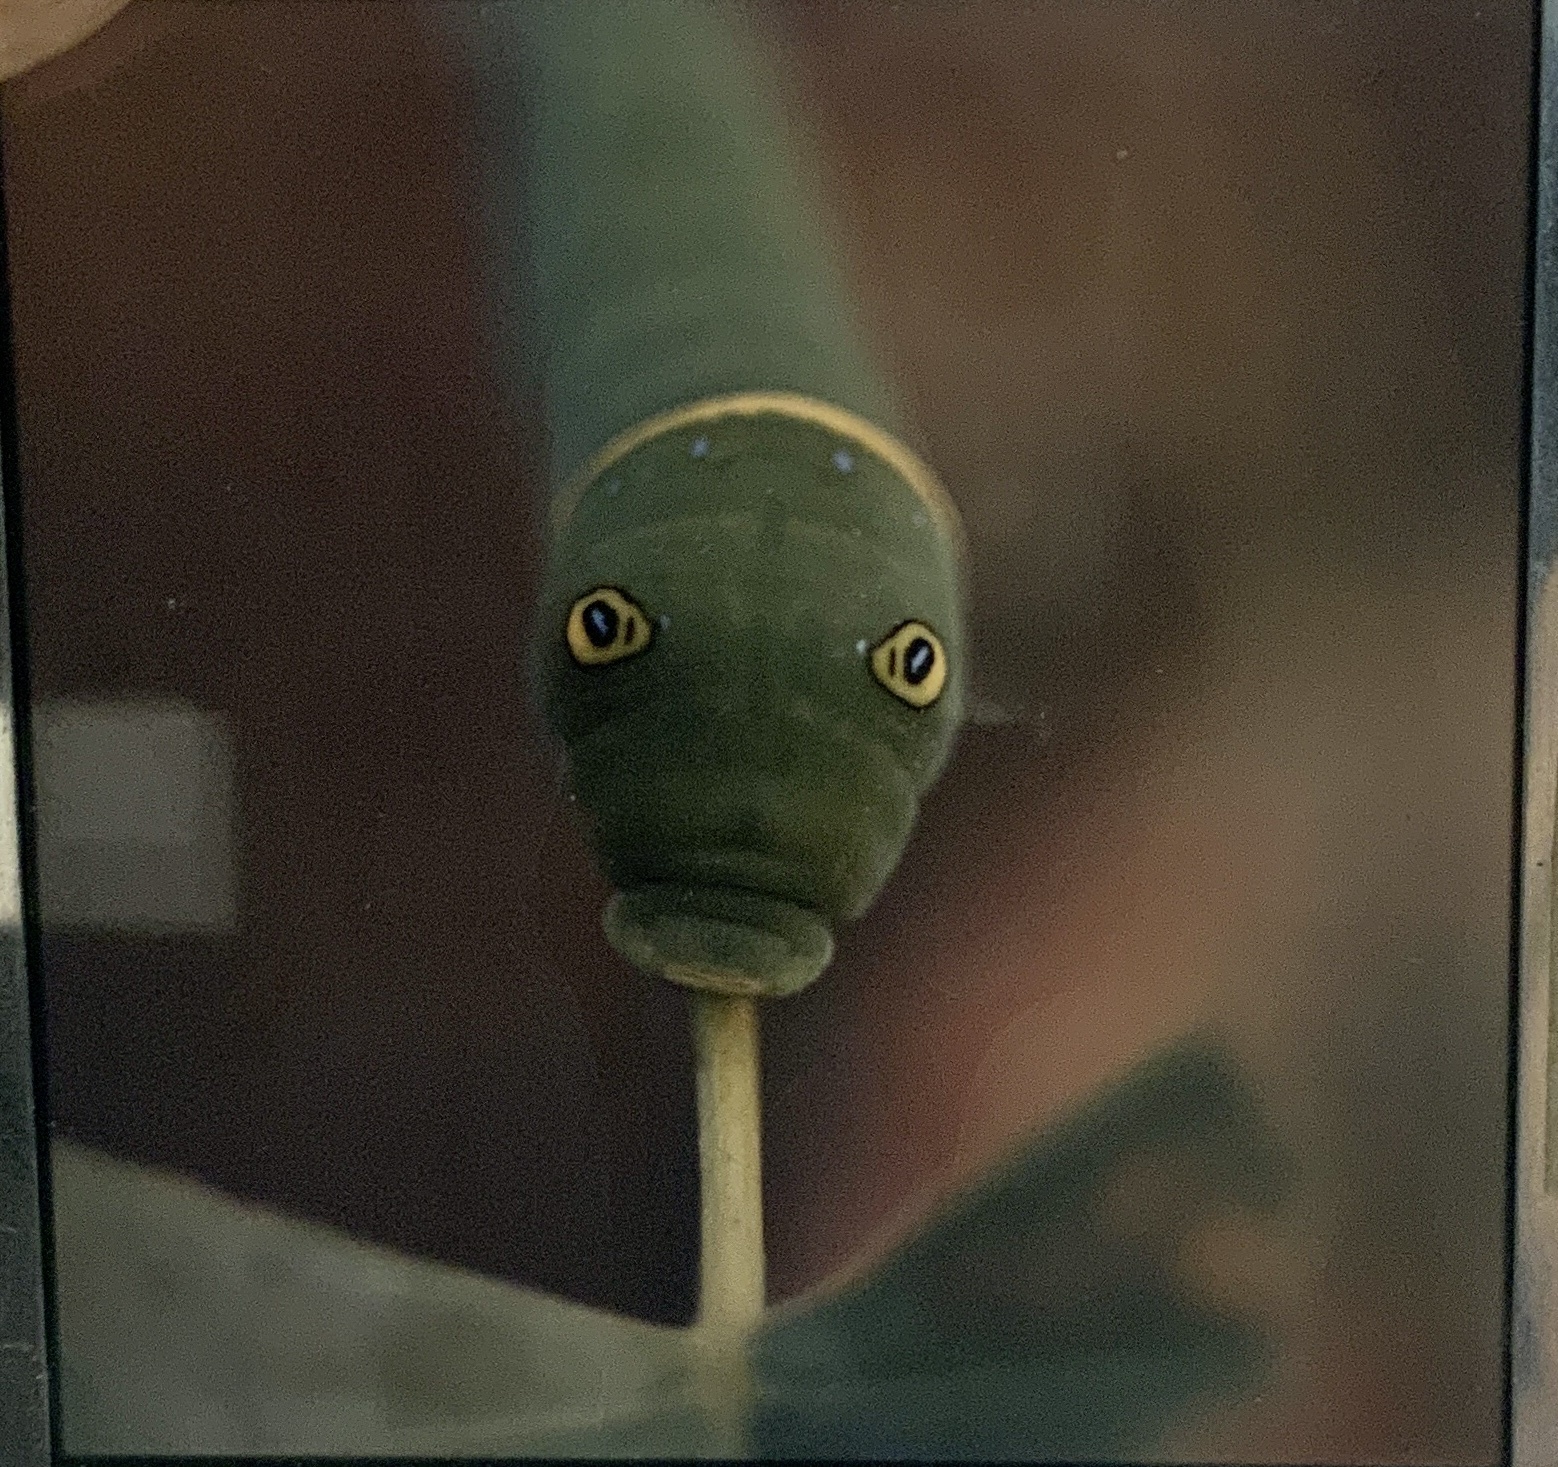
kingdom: Animalia
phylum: Arthropoda
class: Insecta
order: Lepidoptera
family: Papilionidae
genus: Papilio
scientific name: Papilio glaucus
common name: Tiger swallowtail
